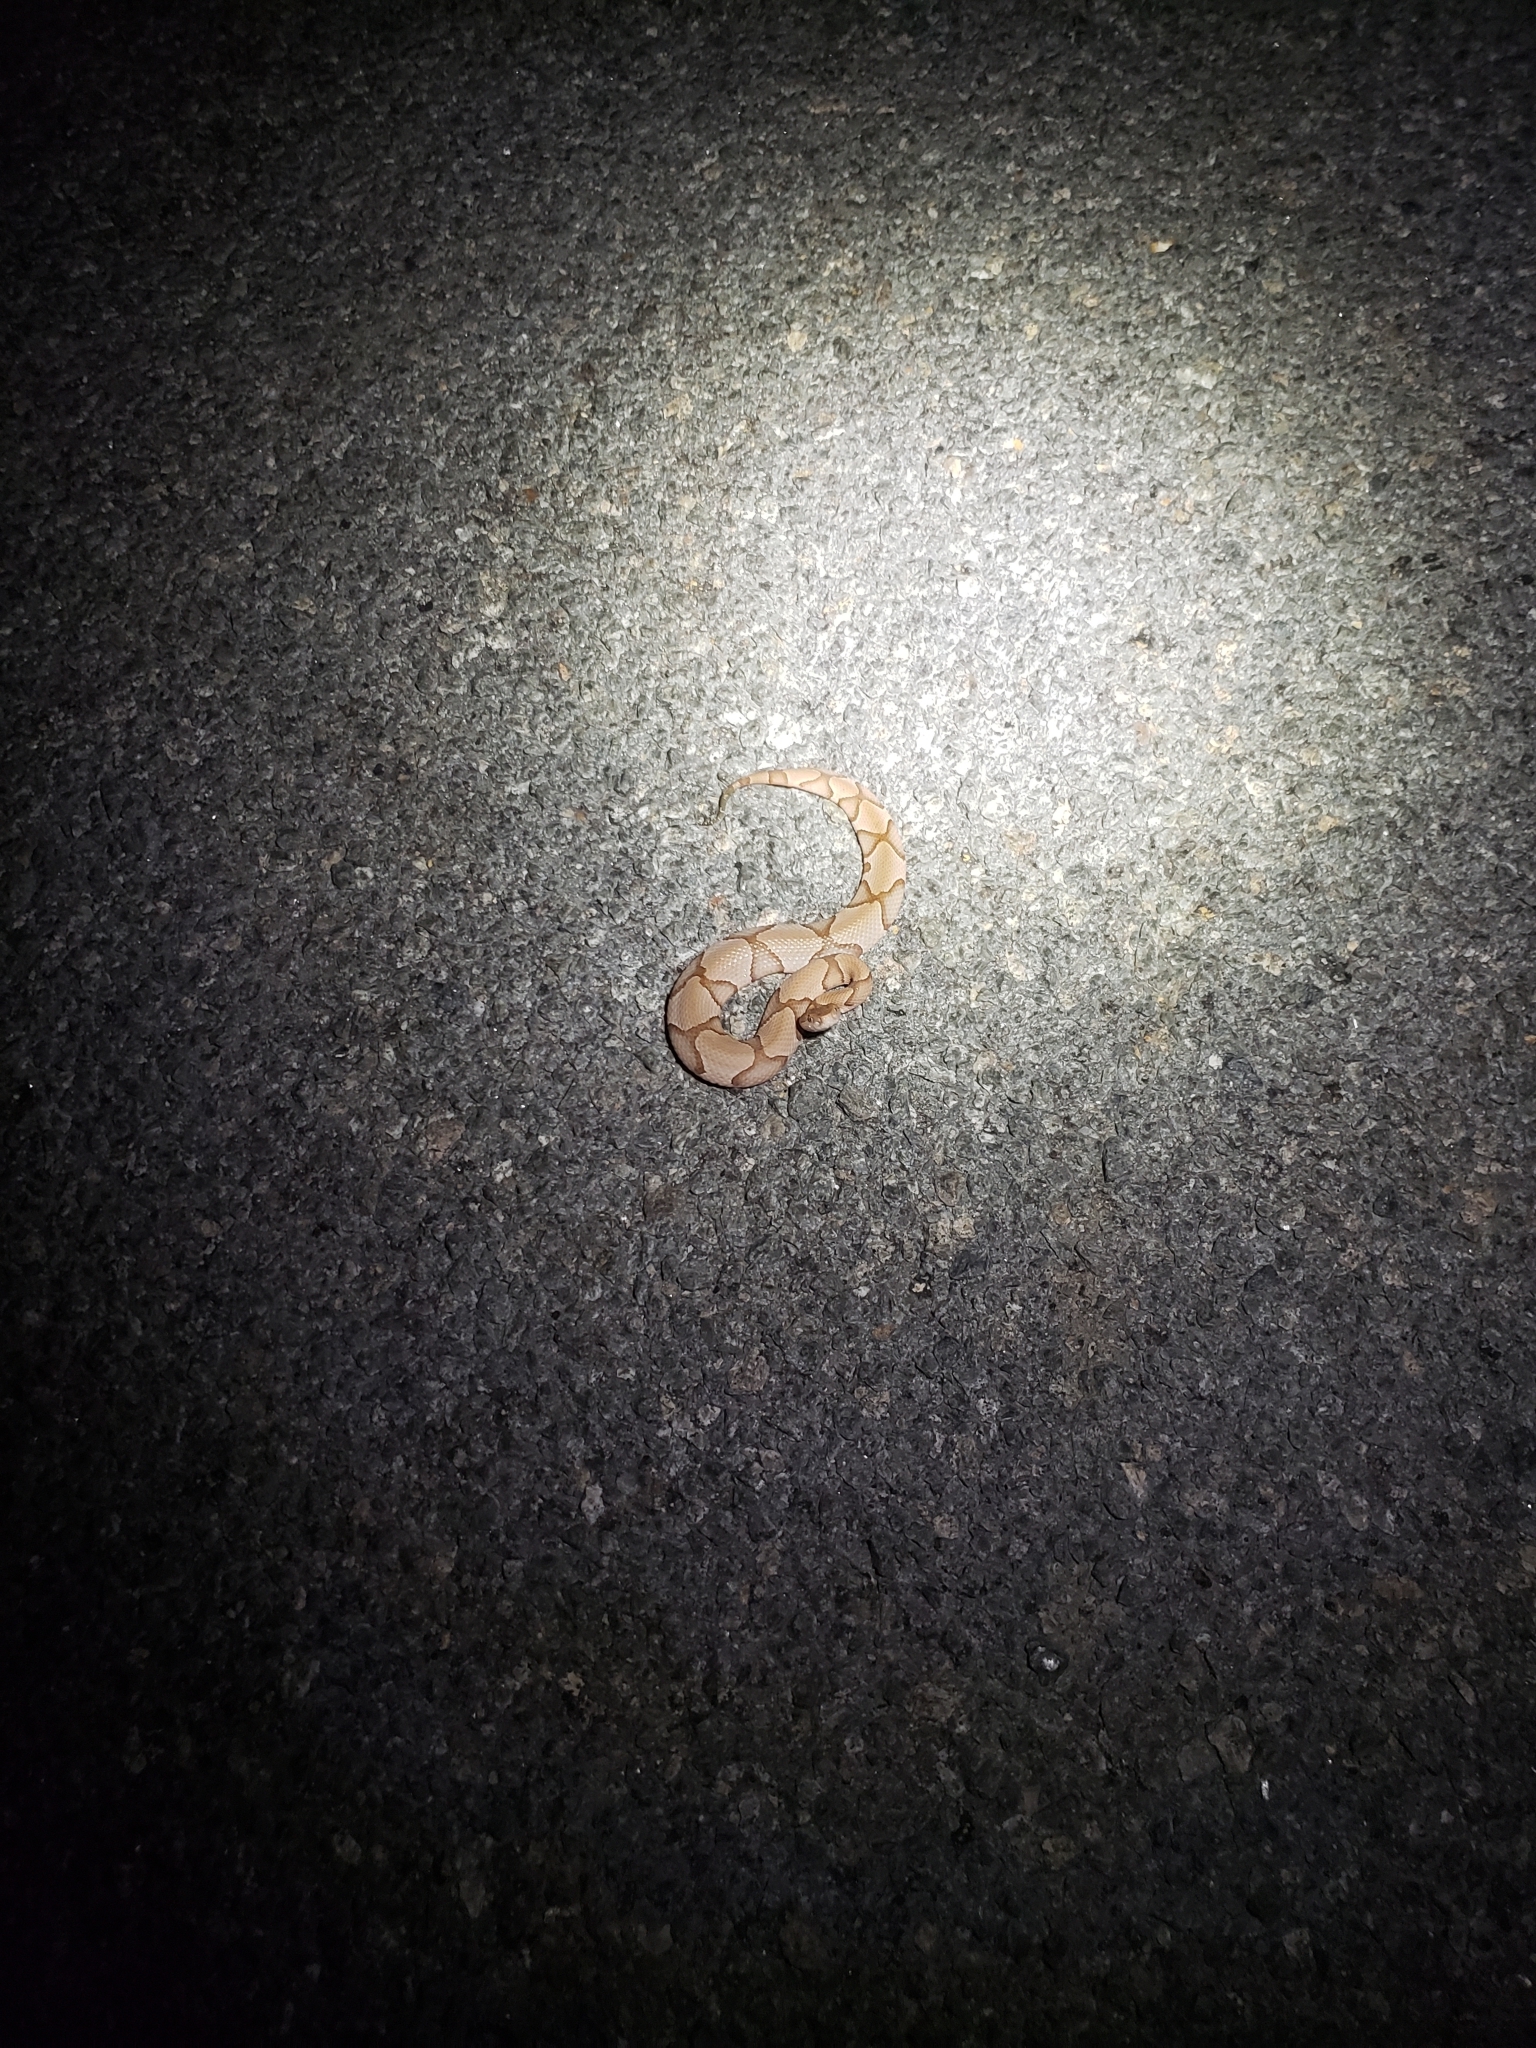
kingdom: Animalia
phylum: Chordata
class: Squamata
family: Viperidae
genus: Agkistrodon
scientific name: Agkistrodon contortrix
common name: Northern copperhead
